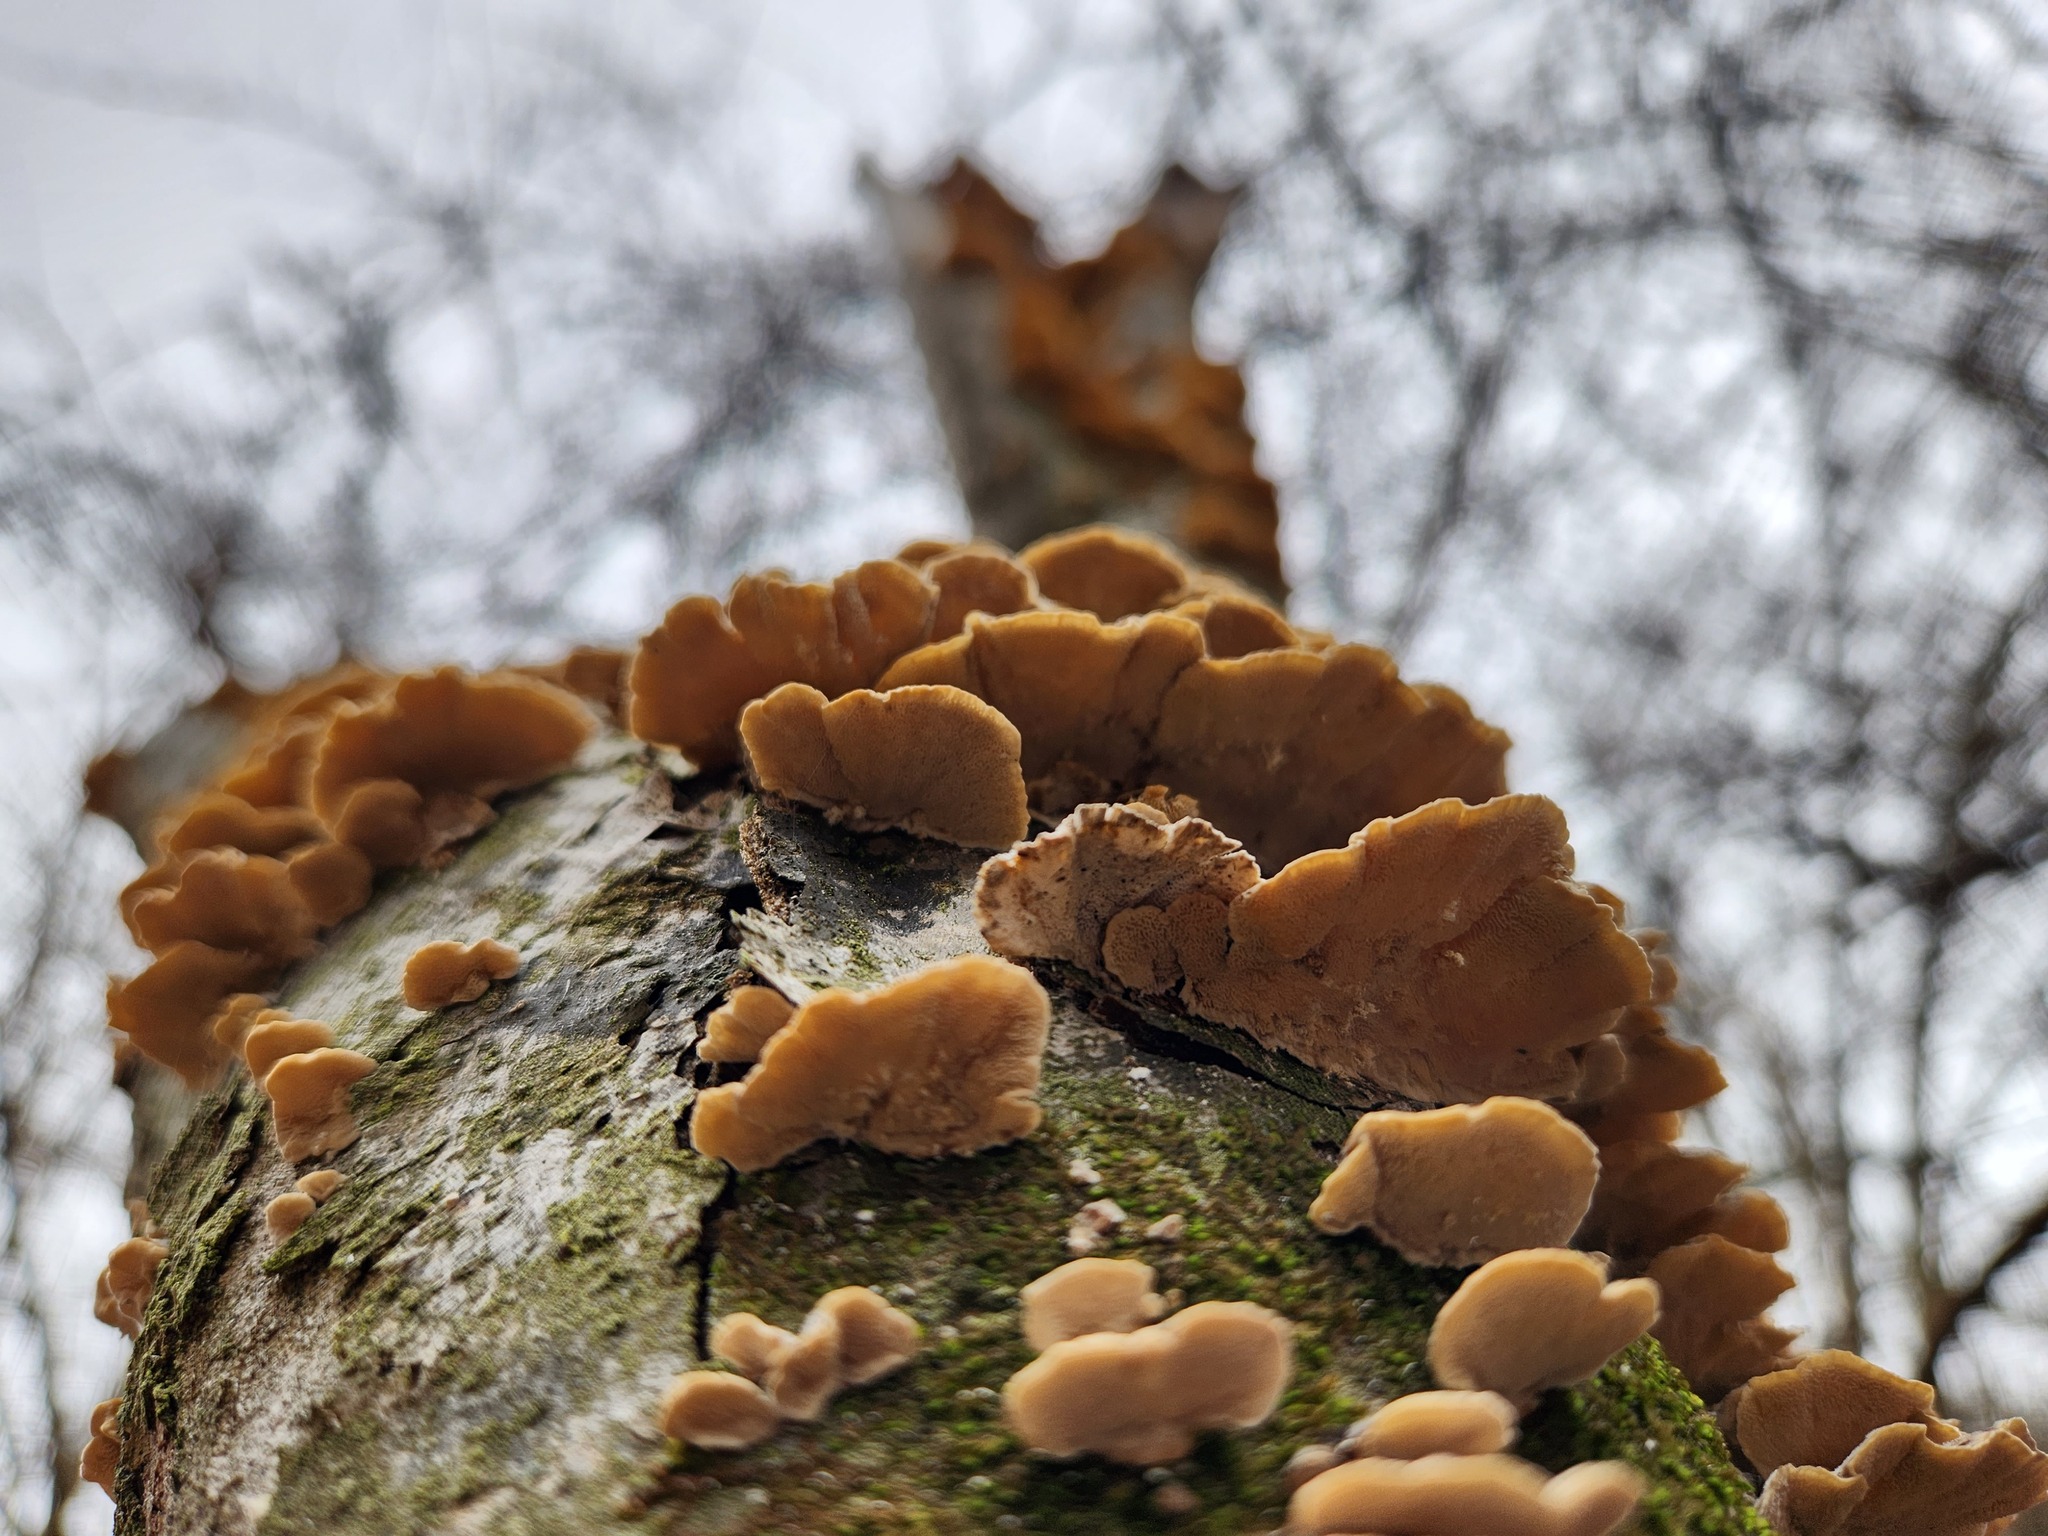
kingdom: Fungi
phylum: Basidiomycota
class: Agaricomycetes
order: Polyporales
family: Polyporaceae
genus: Trametes
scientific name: Trametes versicolor
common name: Turkeytail
